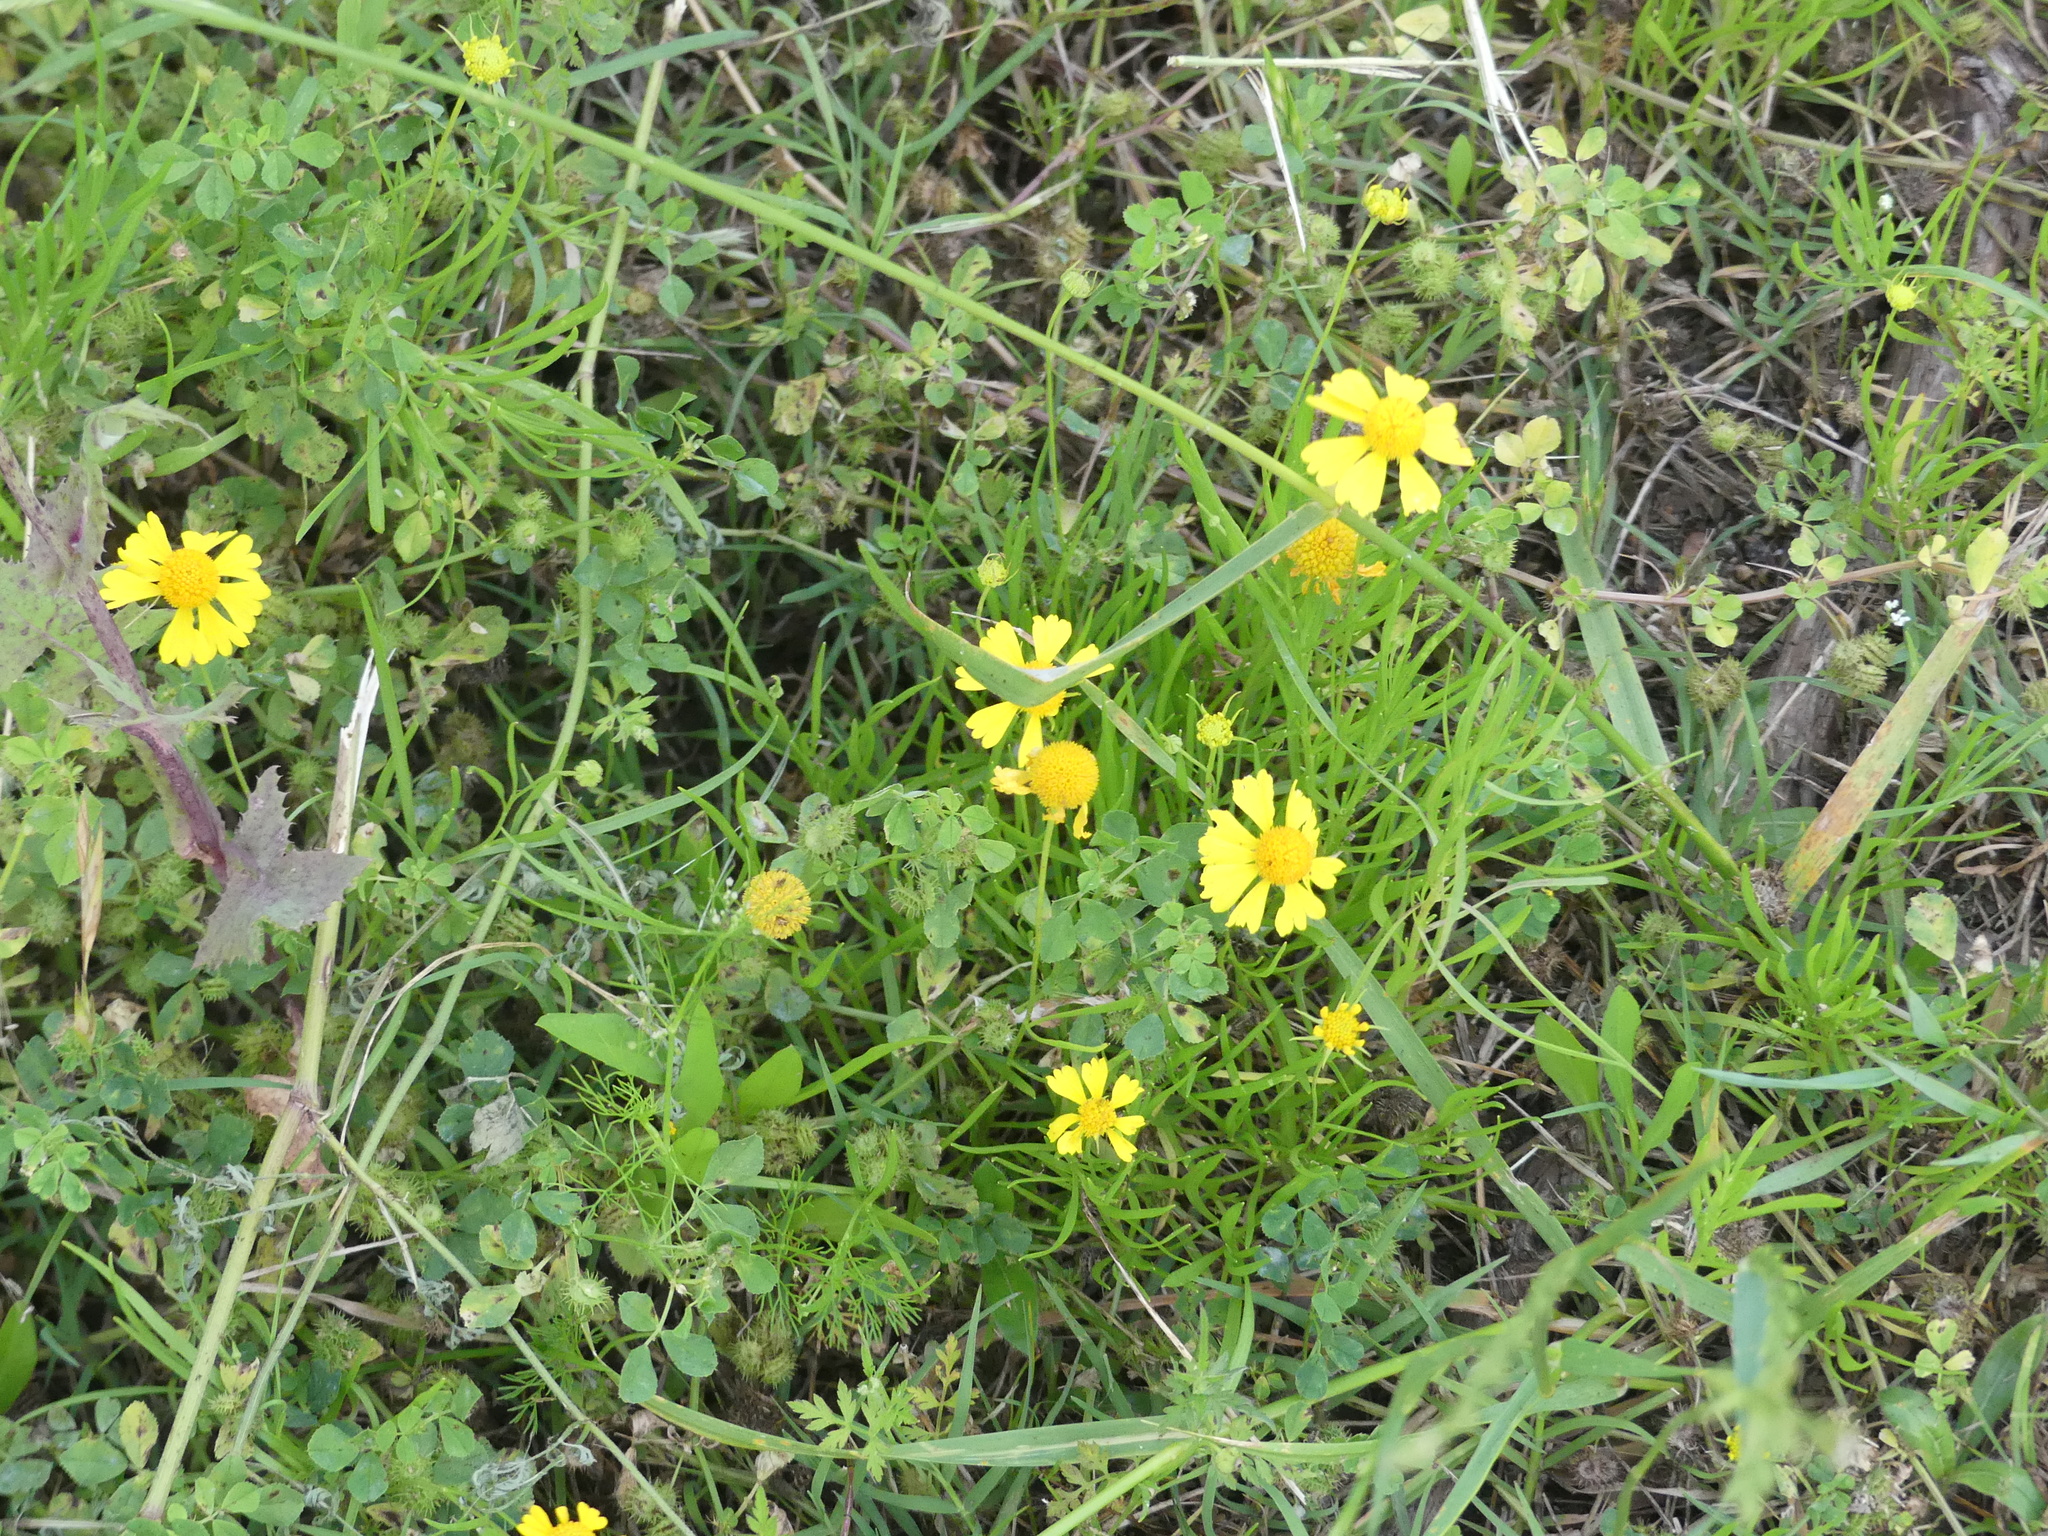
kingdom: Plantae
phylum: Tracheophyta
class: Magnoliopsida
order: Asterales
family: Asteraceae
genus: Helenium
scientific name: Helenium amarum
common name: Bitter sneezeweed
